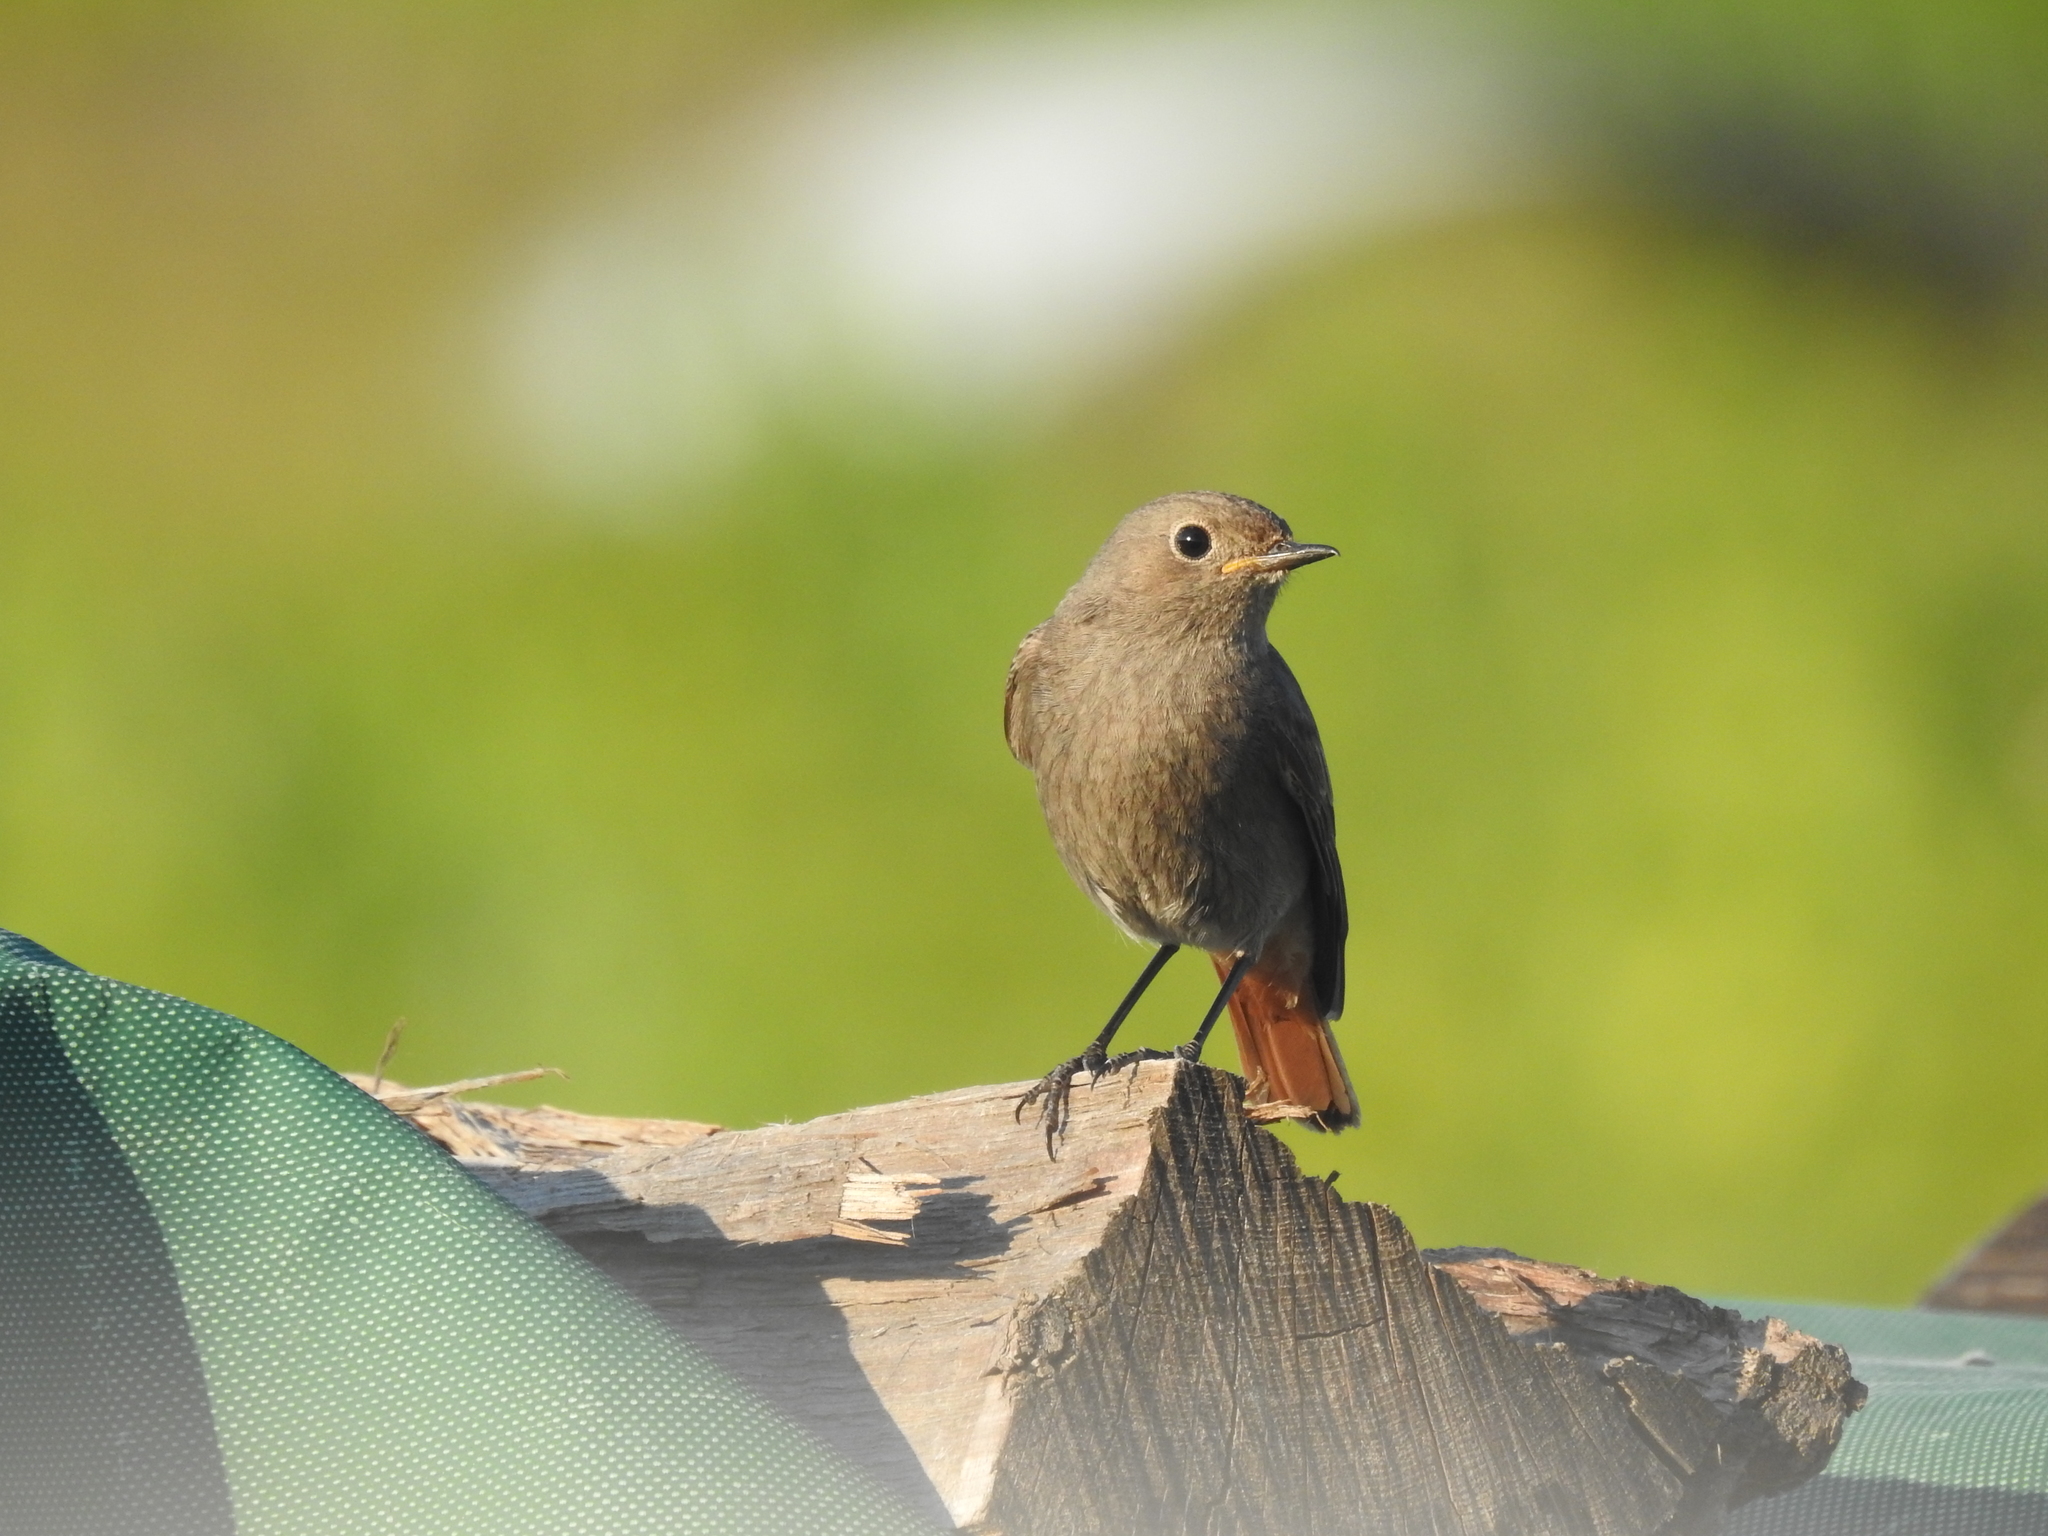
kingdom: Animalia
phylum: Chordata
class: Aves
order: Passeriformes
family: Muscicapidae
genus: Phoenicurus
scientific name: Phoenicurus ochruros
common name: Black redstart
